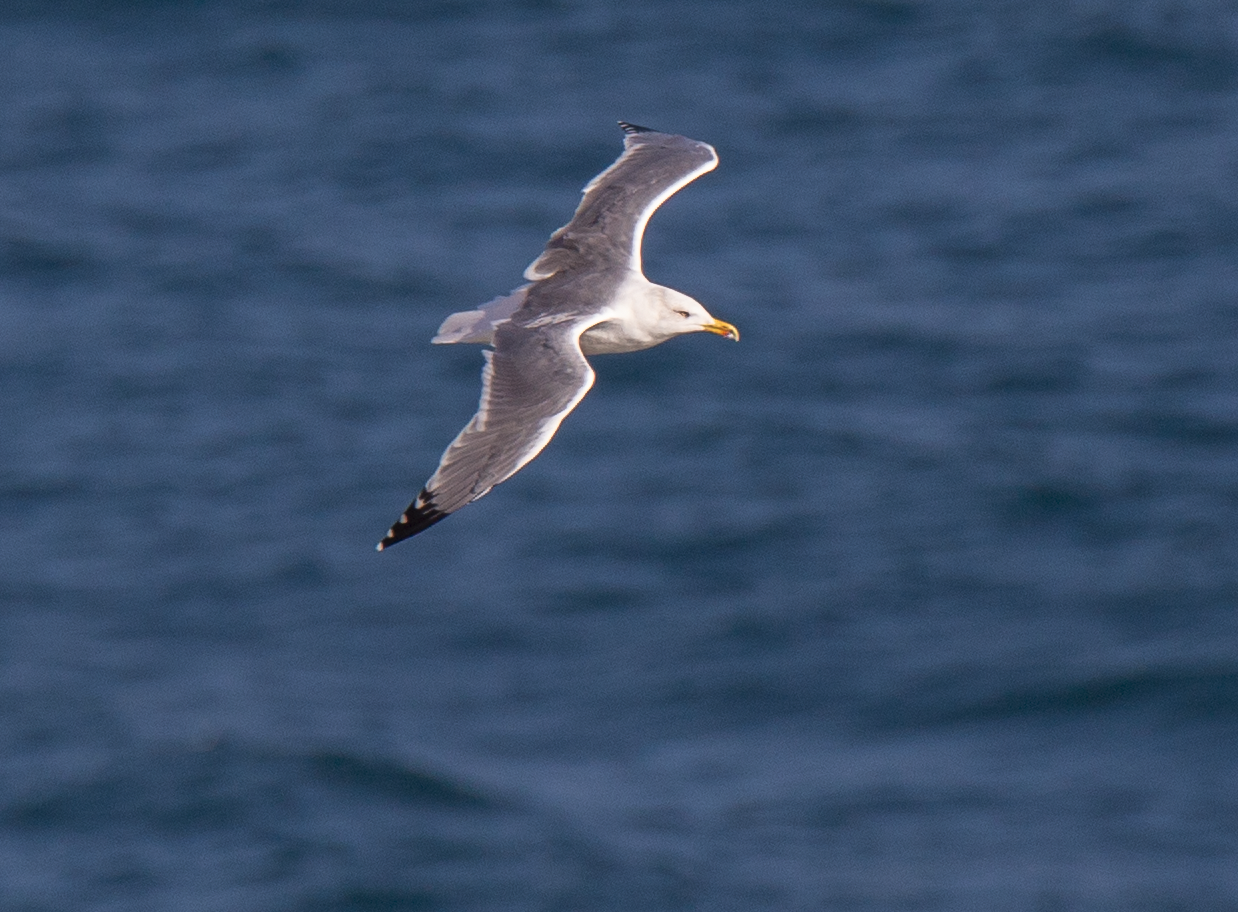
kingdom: Animalia
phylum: Chordata
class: Aves
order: Charadriiformes
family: Laridae
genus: Larus
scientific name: Larus michahellis
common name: Yellow-legged gull
